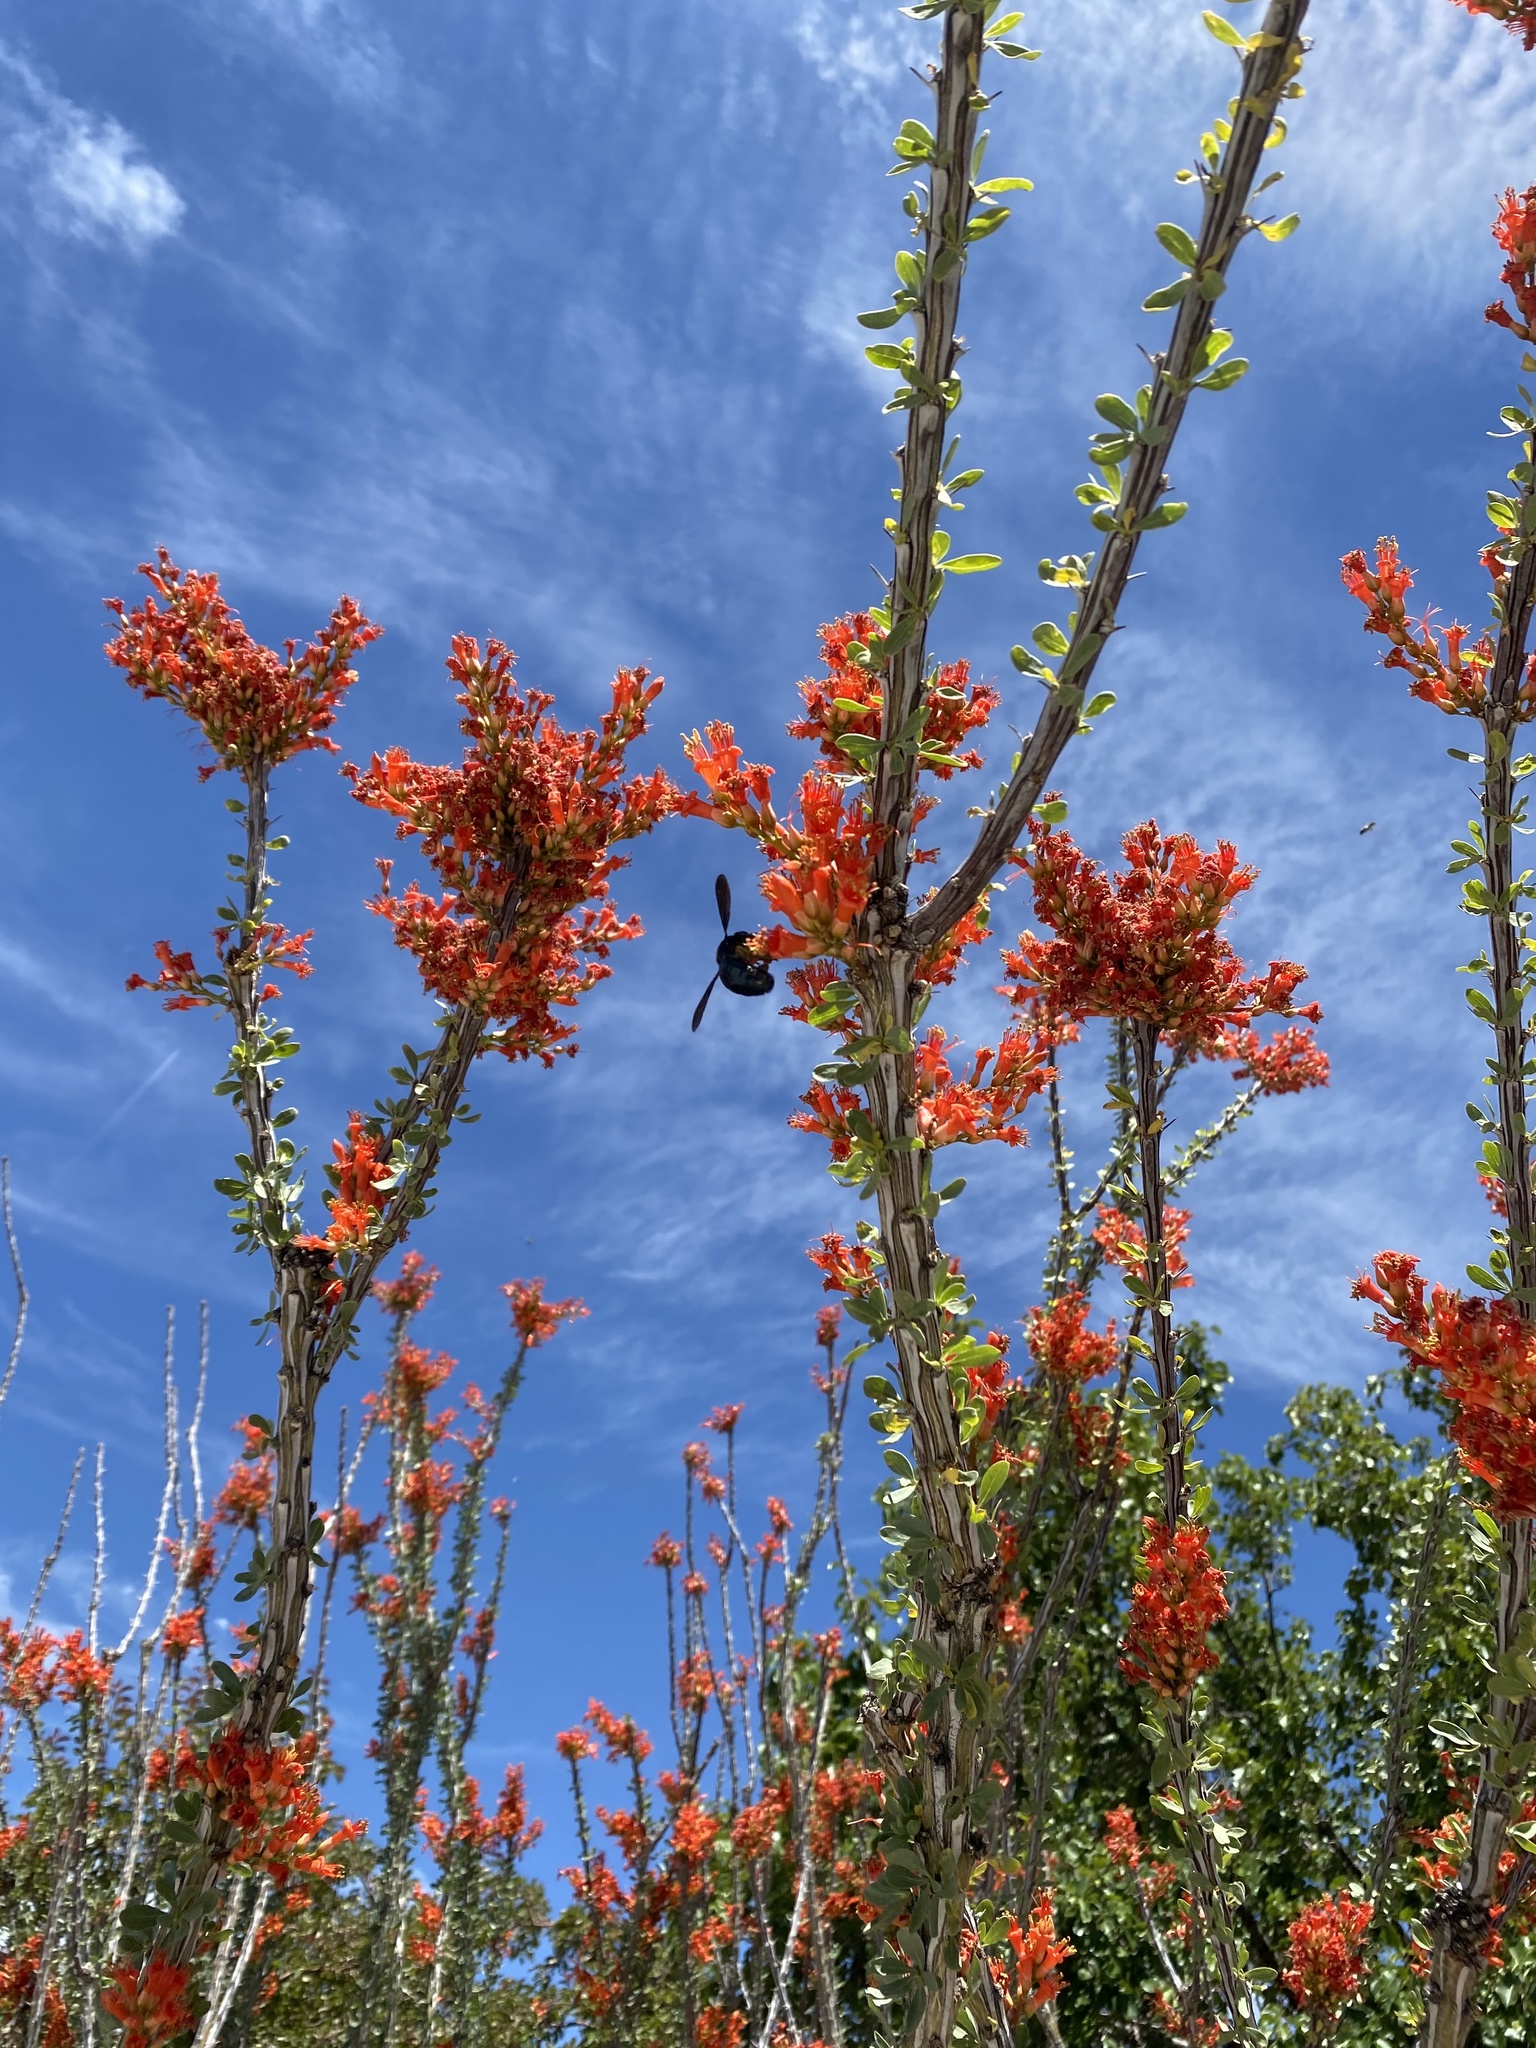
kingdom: Animalia
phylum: Arthropoda
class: Insecta
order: Hymenoptera
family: Apidae
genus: Xylocopa
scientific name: Xylocopa californica
